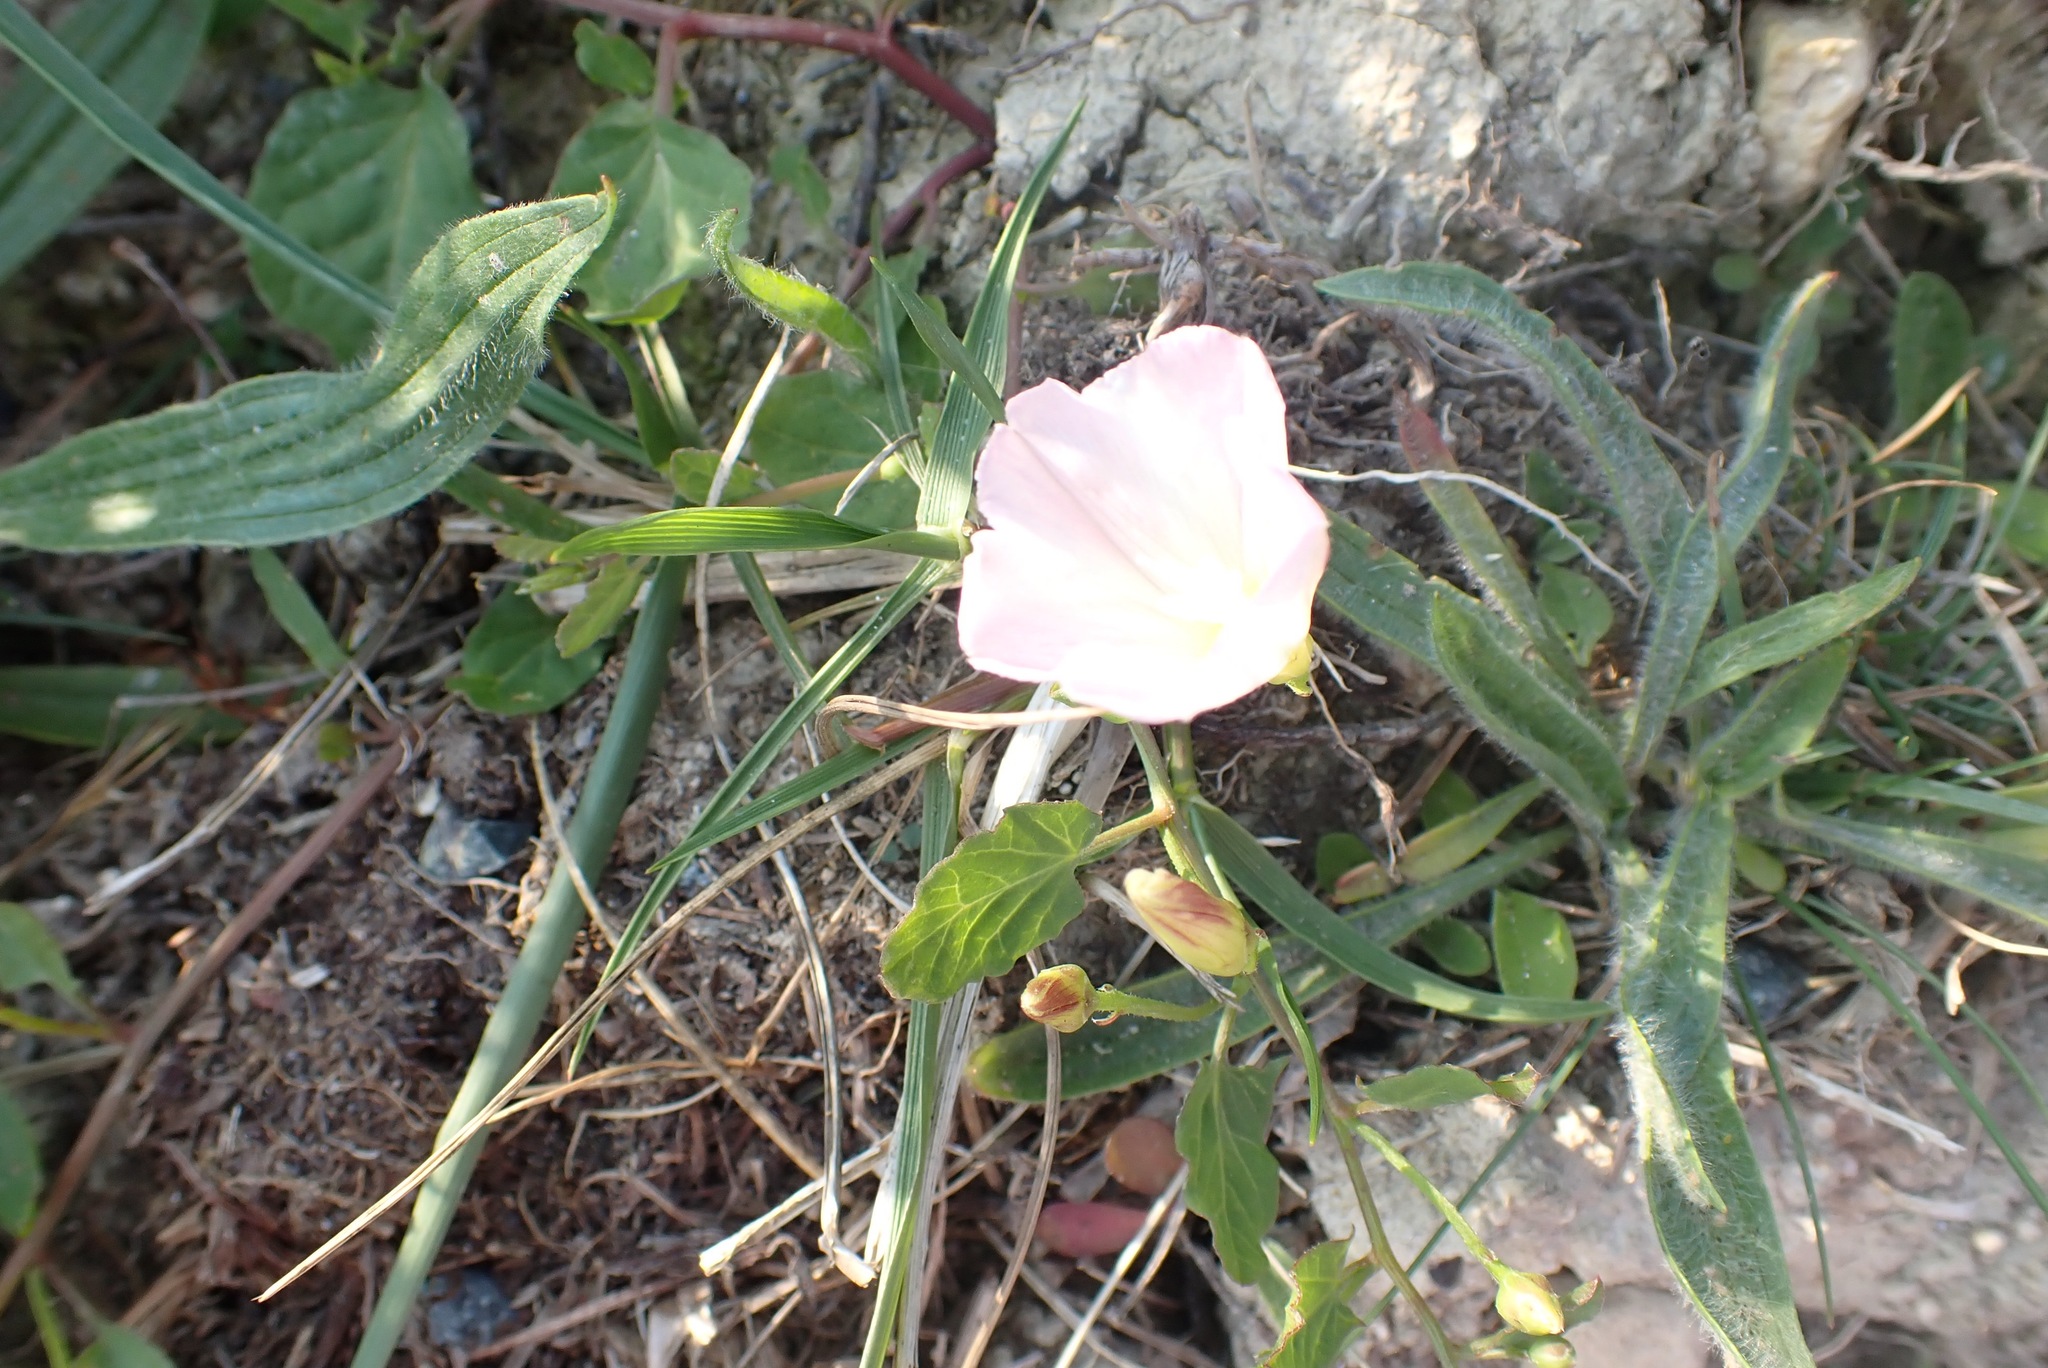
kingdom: Plantae
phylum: Tracheophyta
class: Magnoliopsida
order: Solanales
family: Convolvulaceae
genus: Convolvulus
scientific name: Convolvulus arvensis
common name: Field bindweed
